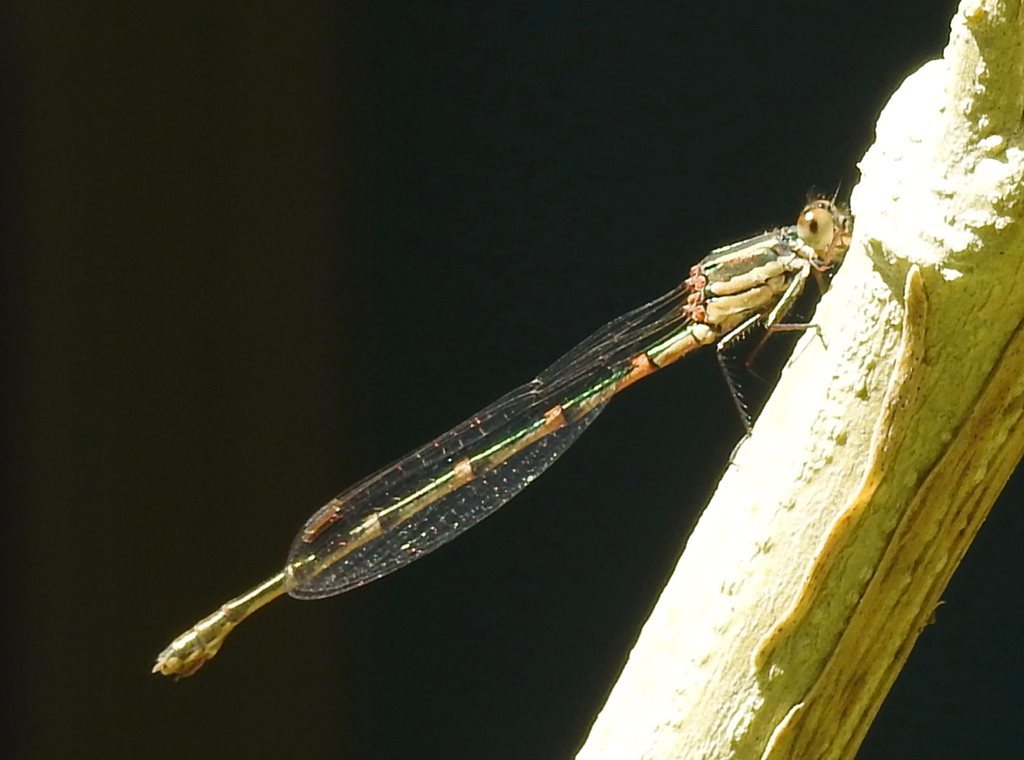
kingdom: Animalia
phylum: Arthropoda
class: Insecta
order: Odonata
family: Lestidae
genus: Austrolestes
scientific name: Austrolestes leda
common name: Wandering ringtail
